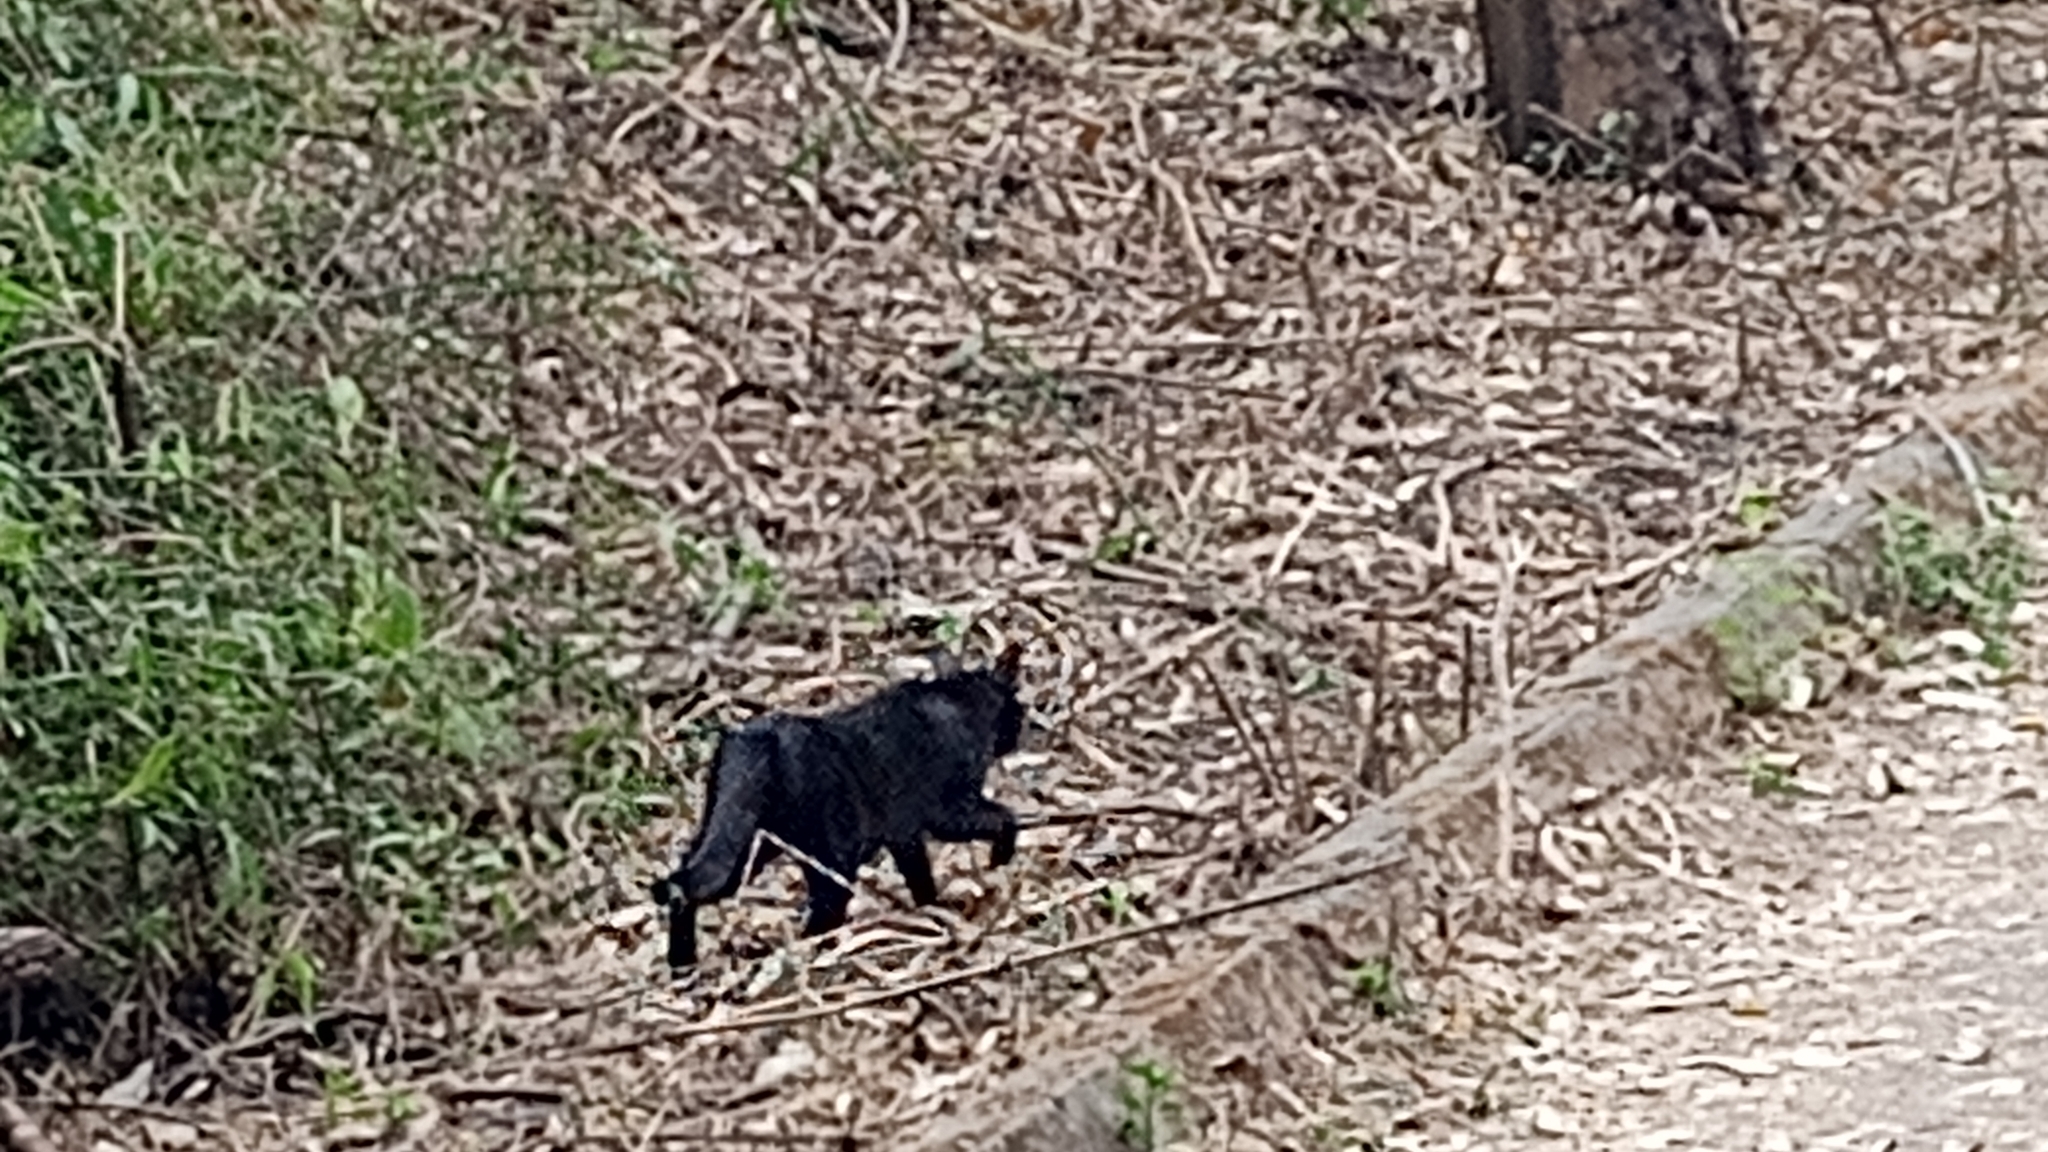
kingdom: Animalia
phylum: Chordata
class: Mammalia
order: Carnivora
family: Felidae
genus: Felis
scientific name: Felis catus
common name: Domestic cat
